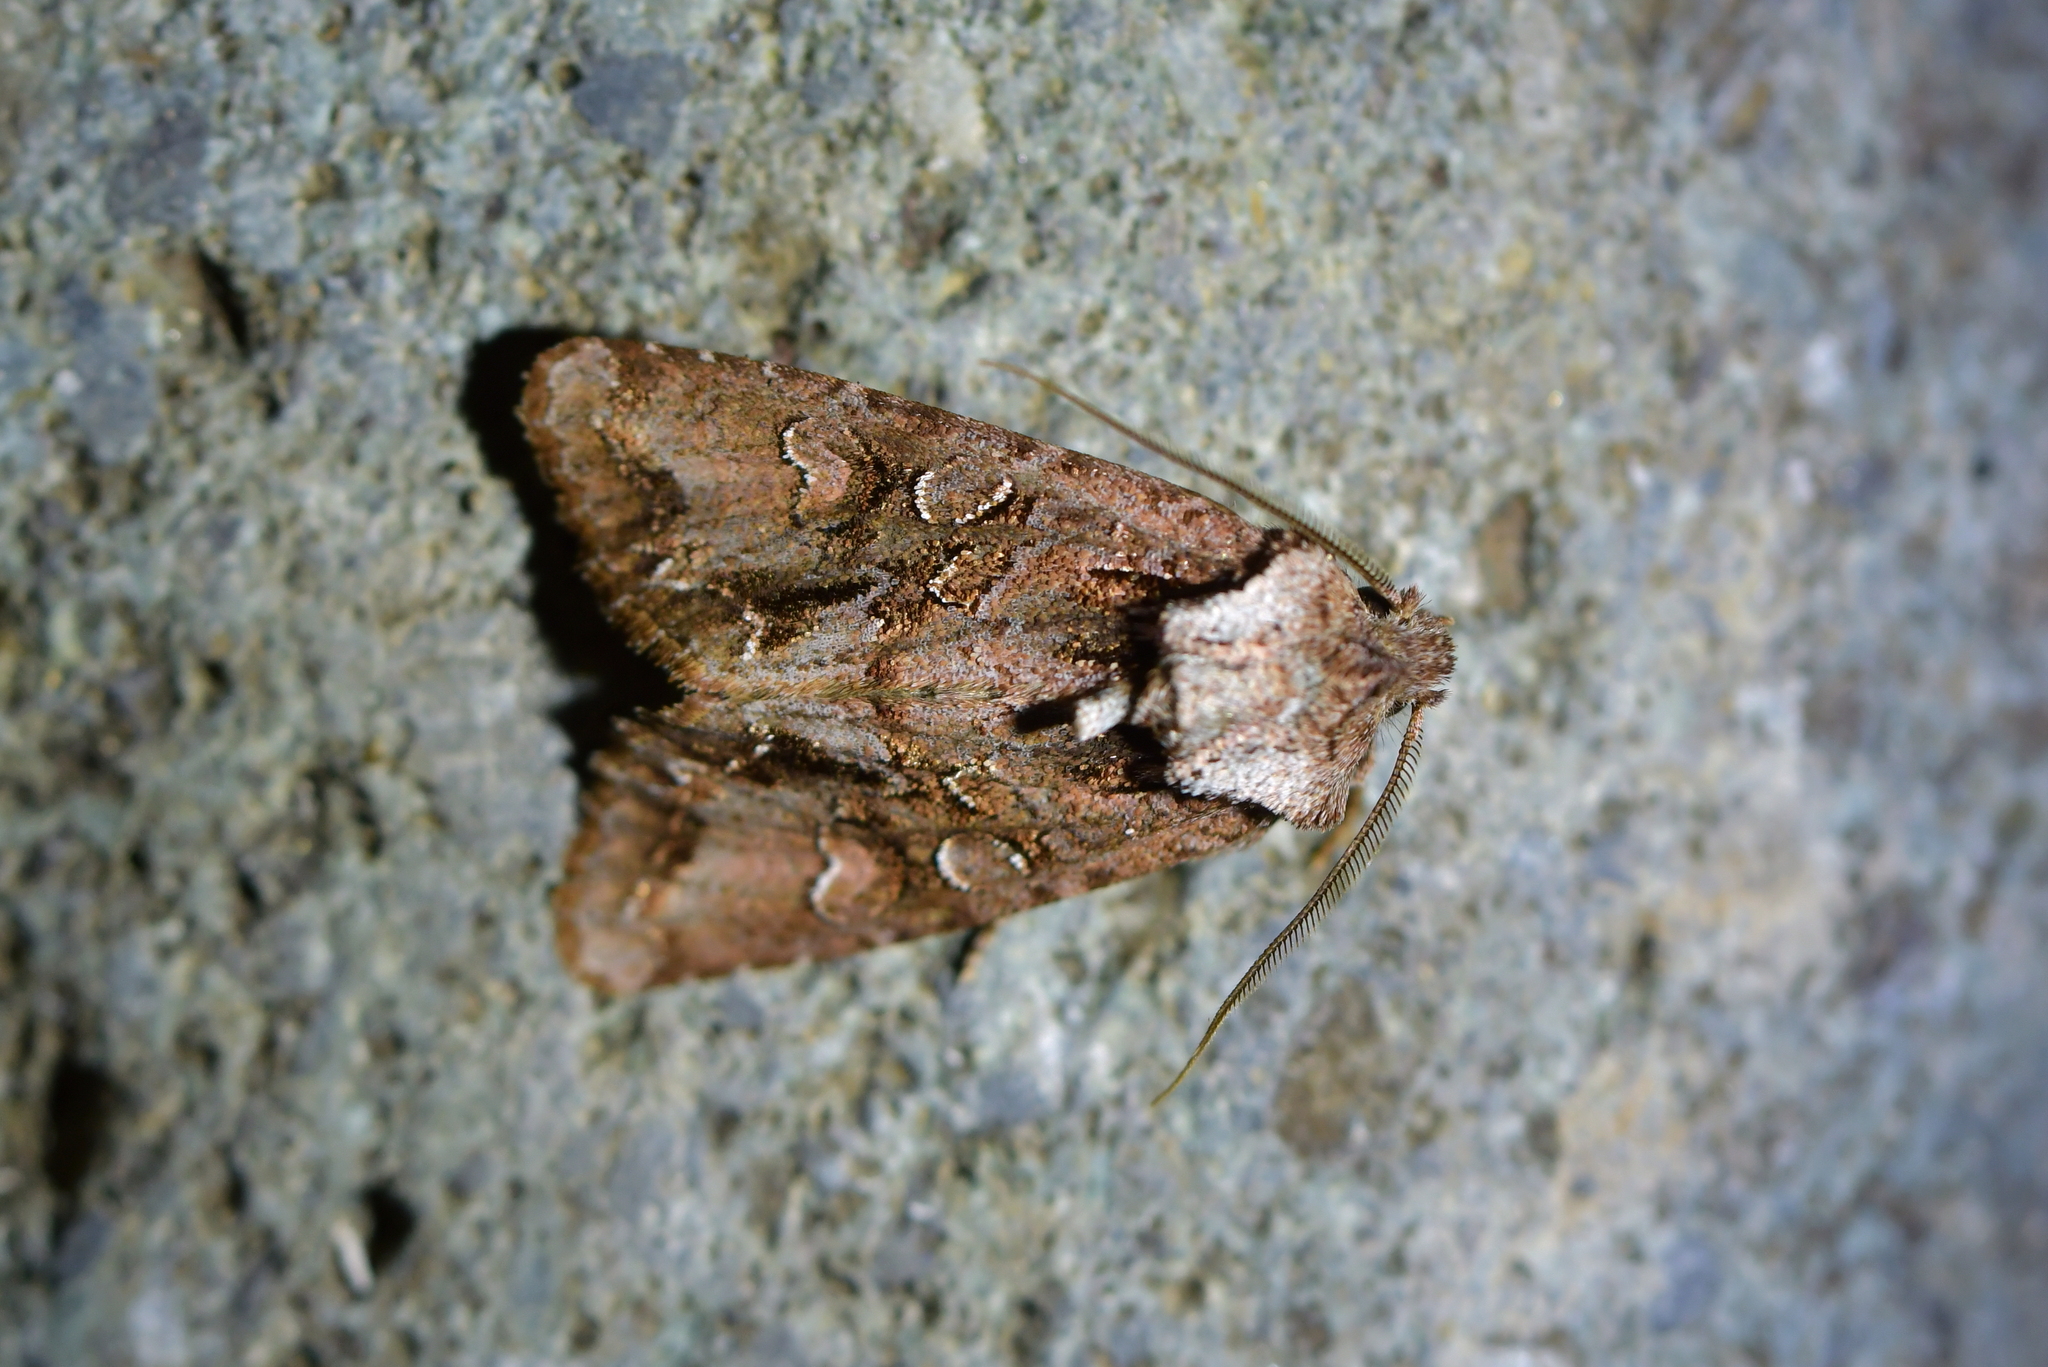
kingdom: Animalia
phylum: Arthropoda
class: Insecta
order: Lepidoptera
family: Noctuidae
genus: Ichneutica
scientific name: Ichneutica skelloni
